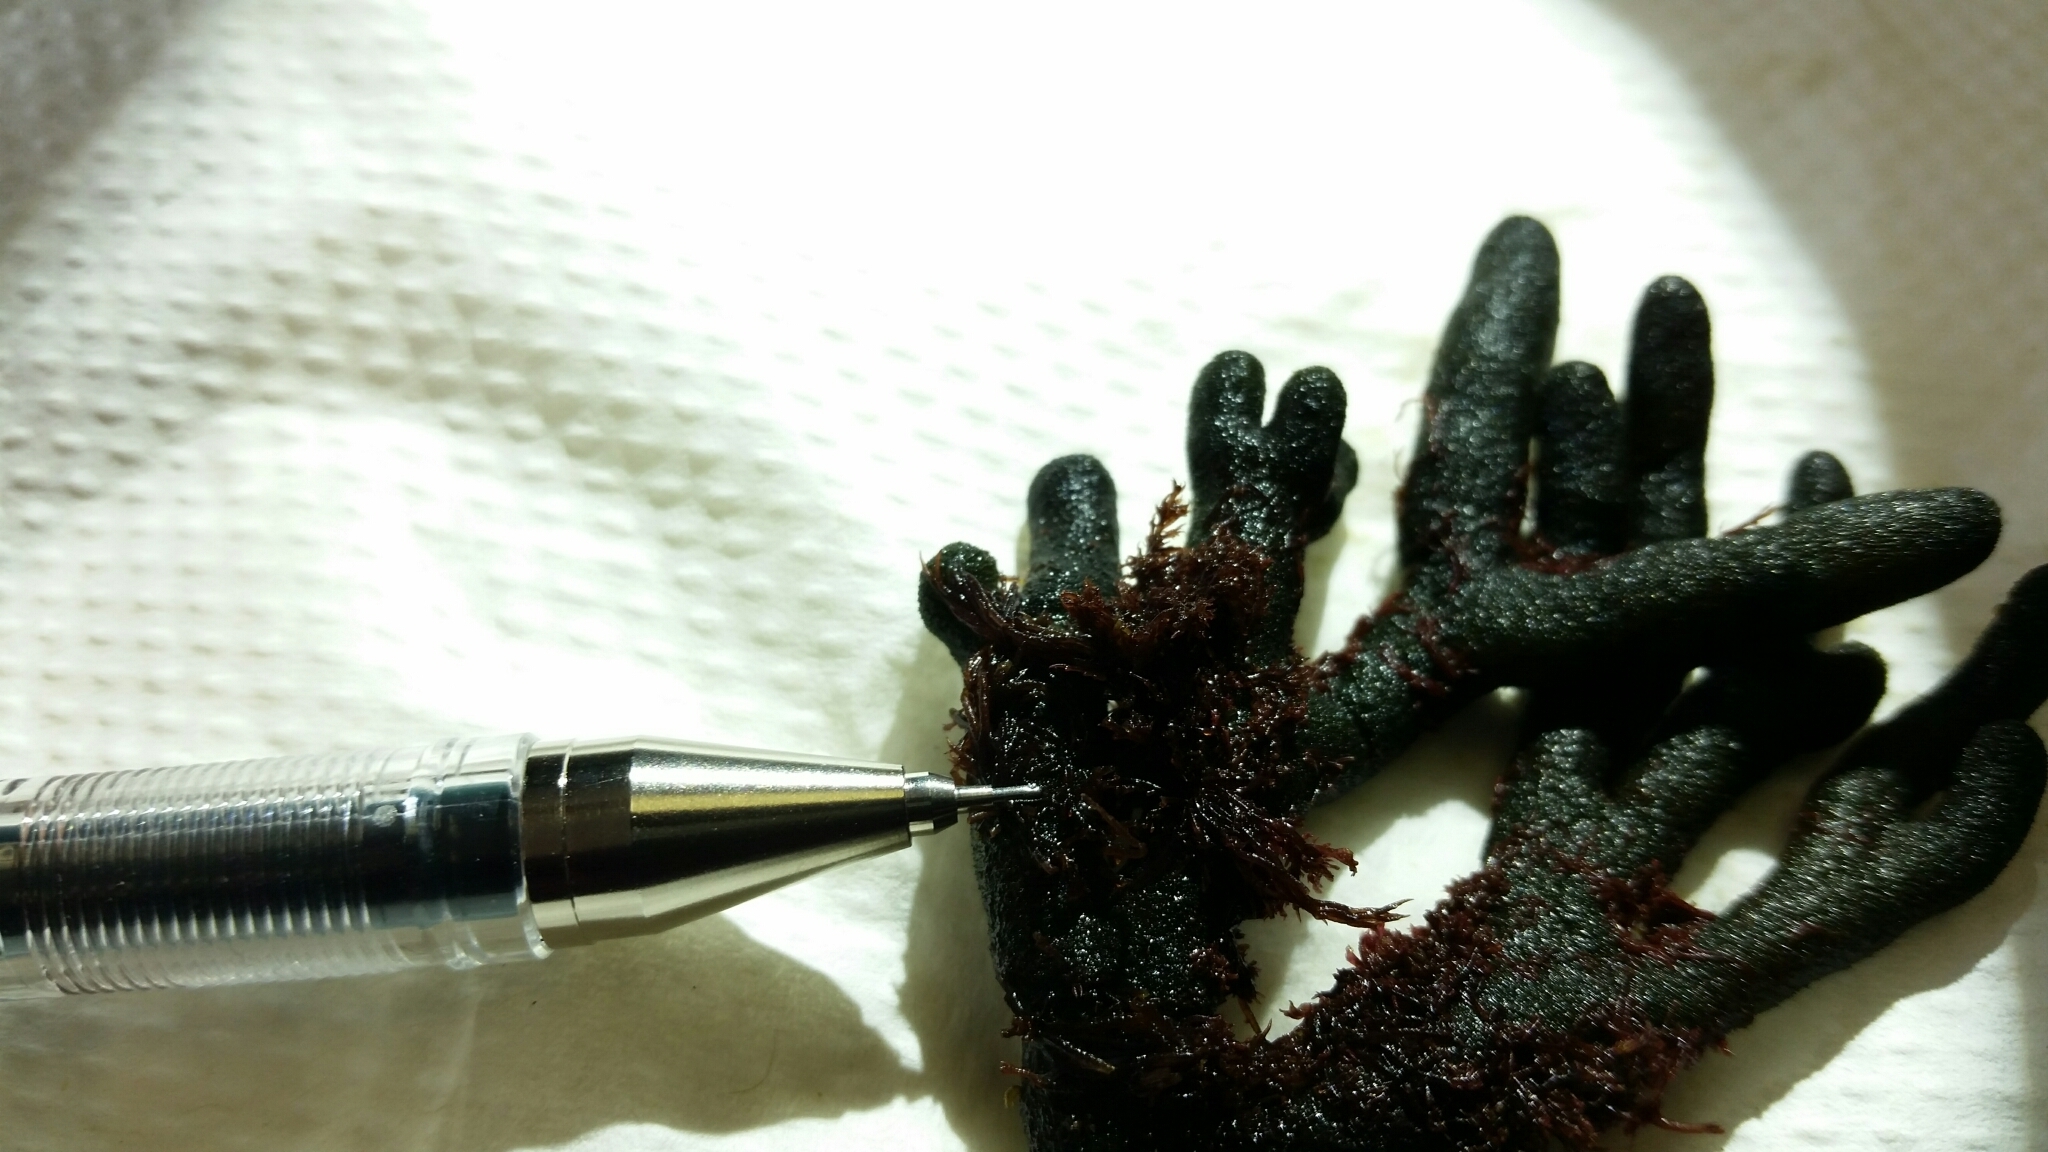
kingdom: Plantae
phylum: Rhodophyta
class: Florideophyceae
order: Ceramiales
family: Ceramiaceae
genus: Ceramium
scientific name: Ceramium codicola
